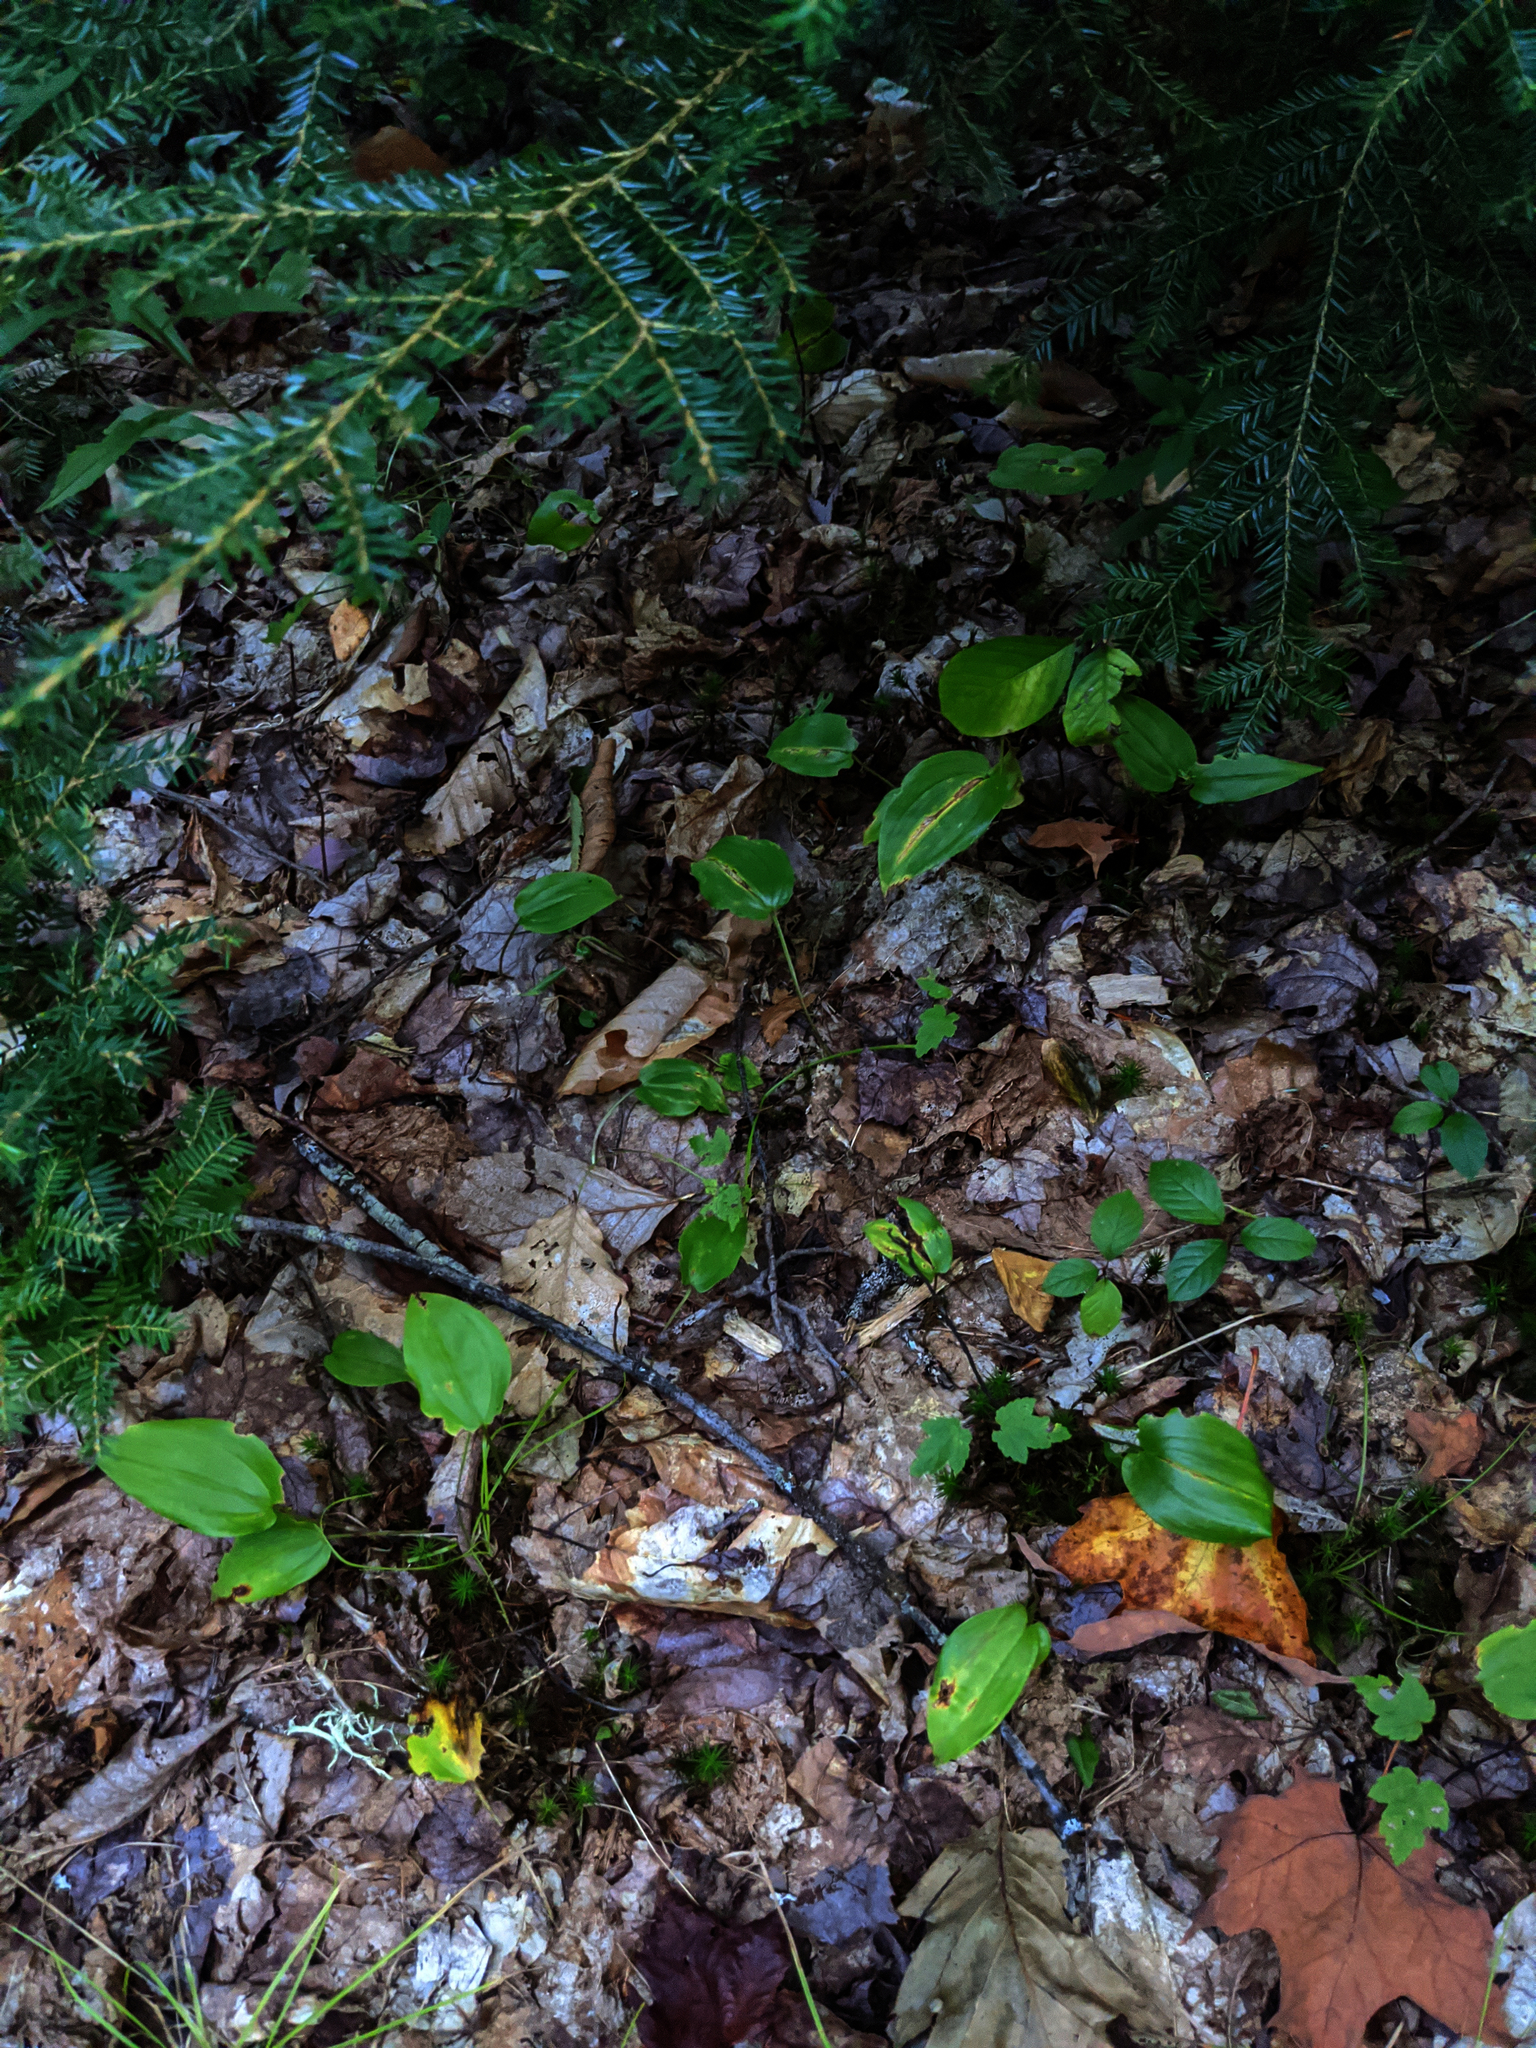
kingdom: Plantae
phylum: Tracheophyta
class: Pinopsida
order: Pinales
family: Pinaceae
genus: Tsuga
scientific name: Tsuga canadensis
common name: Eastern hemlock
